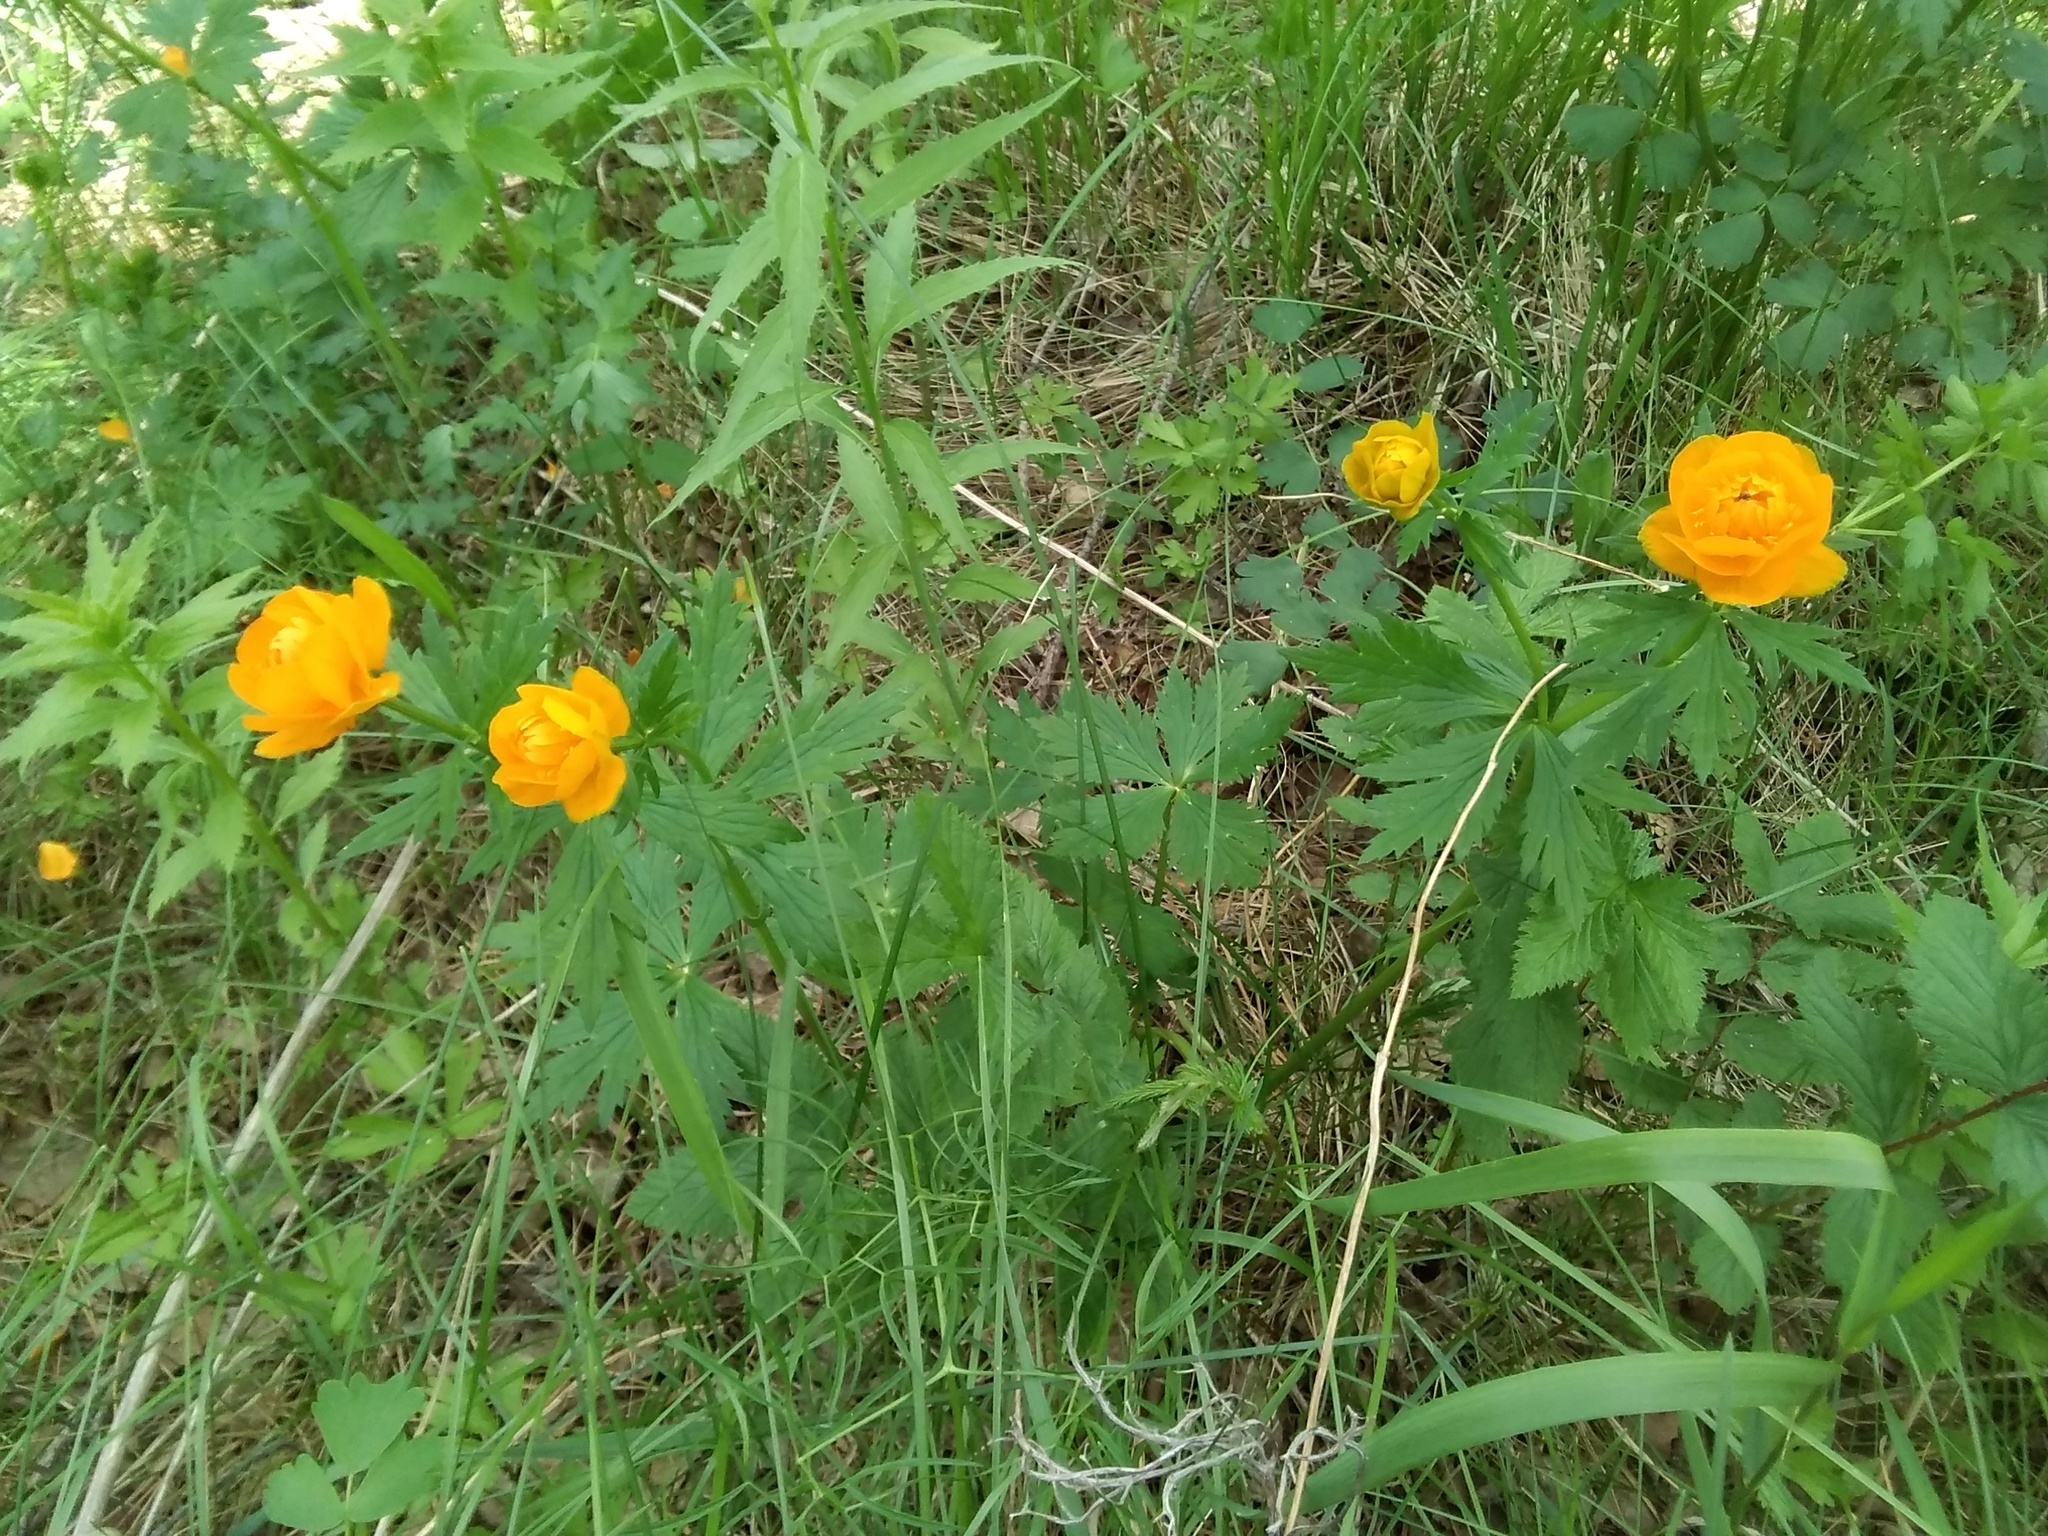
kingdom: Plantae
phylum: Tracheophyta
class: Magnoliopsida
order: Ranunculales
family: Ranunculaceae
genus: Trollius
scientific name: Trollius asiaticus
